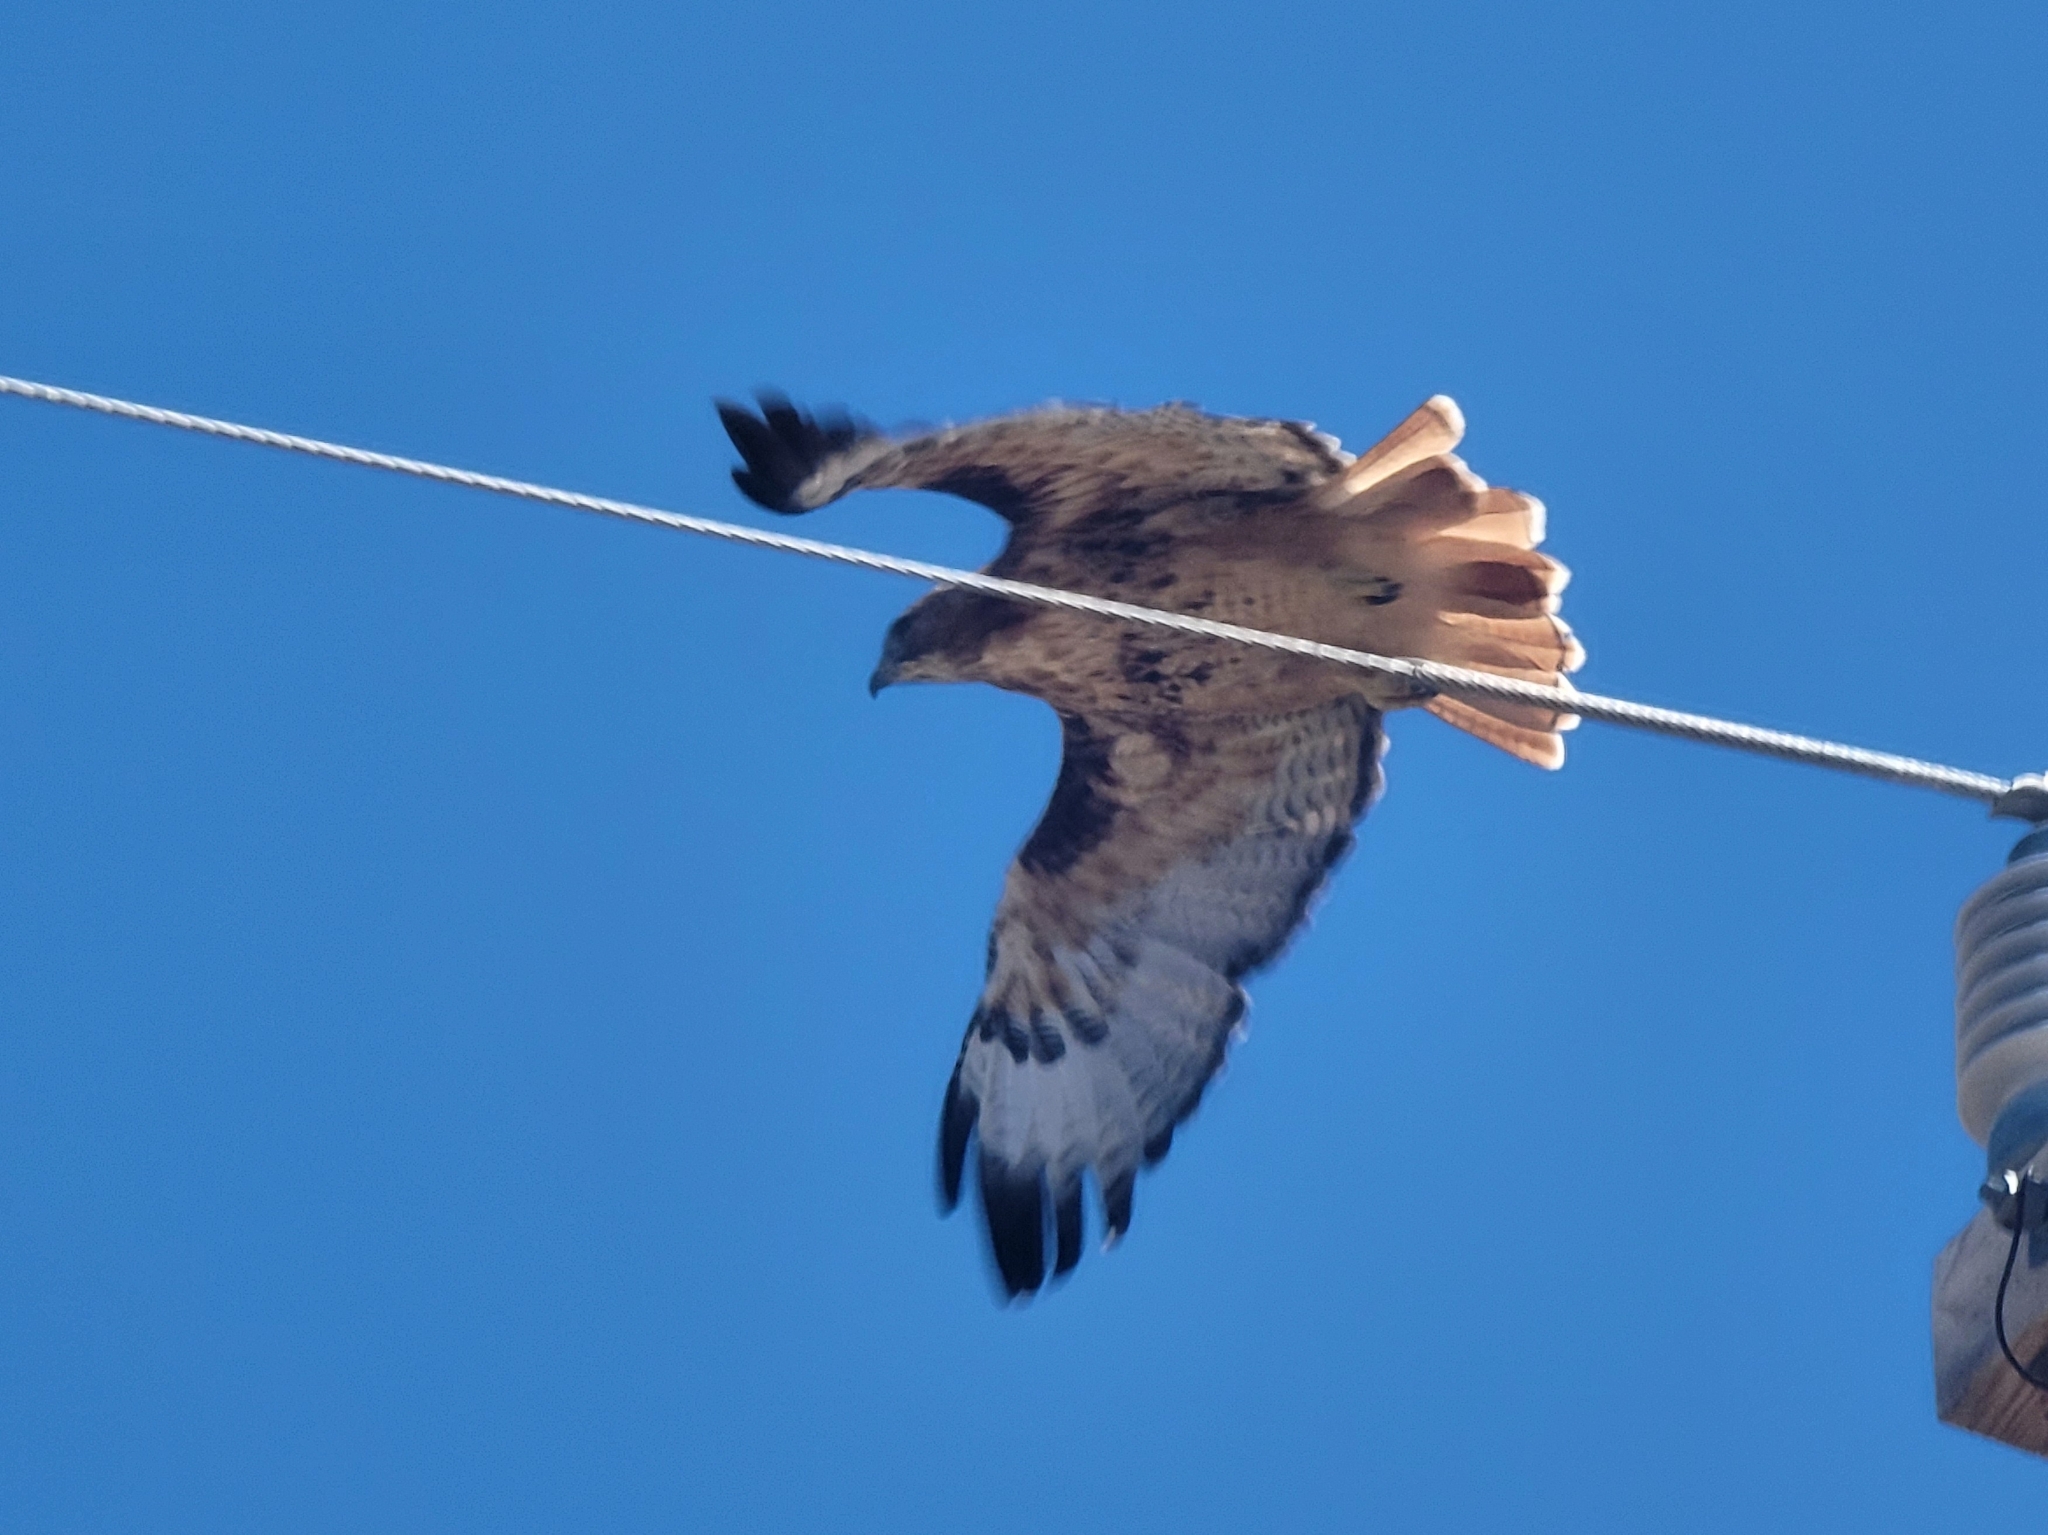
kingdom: Animalia
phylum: Chordata
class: Aves
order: Accipitriformes
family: Accipitridae
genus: Buteo
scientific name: Buteo jamaicensis
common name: Red-tailed hawk
